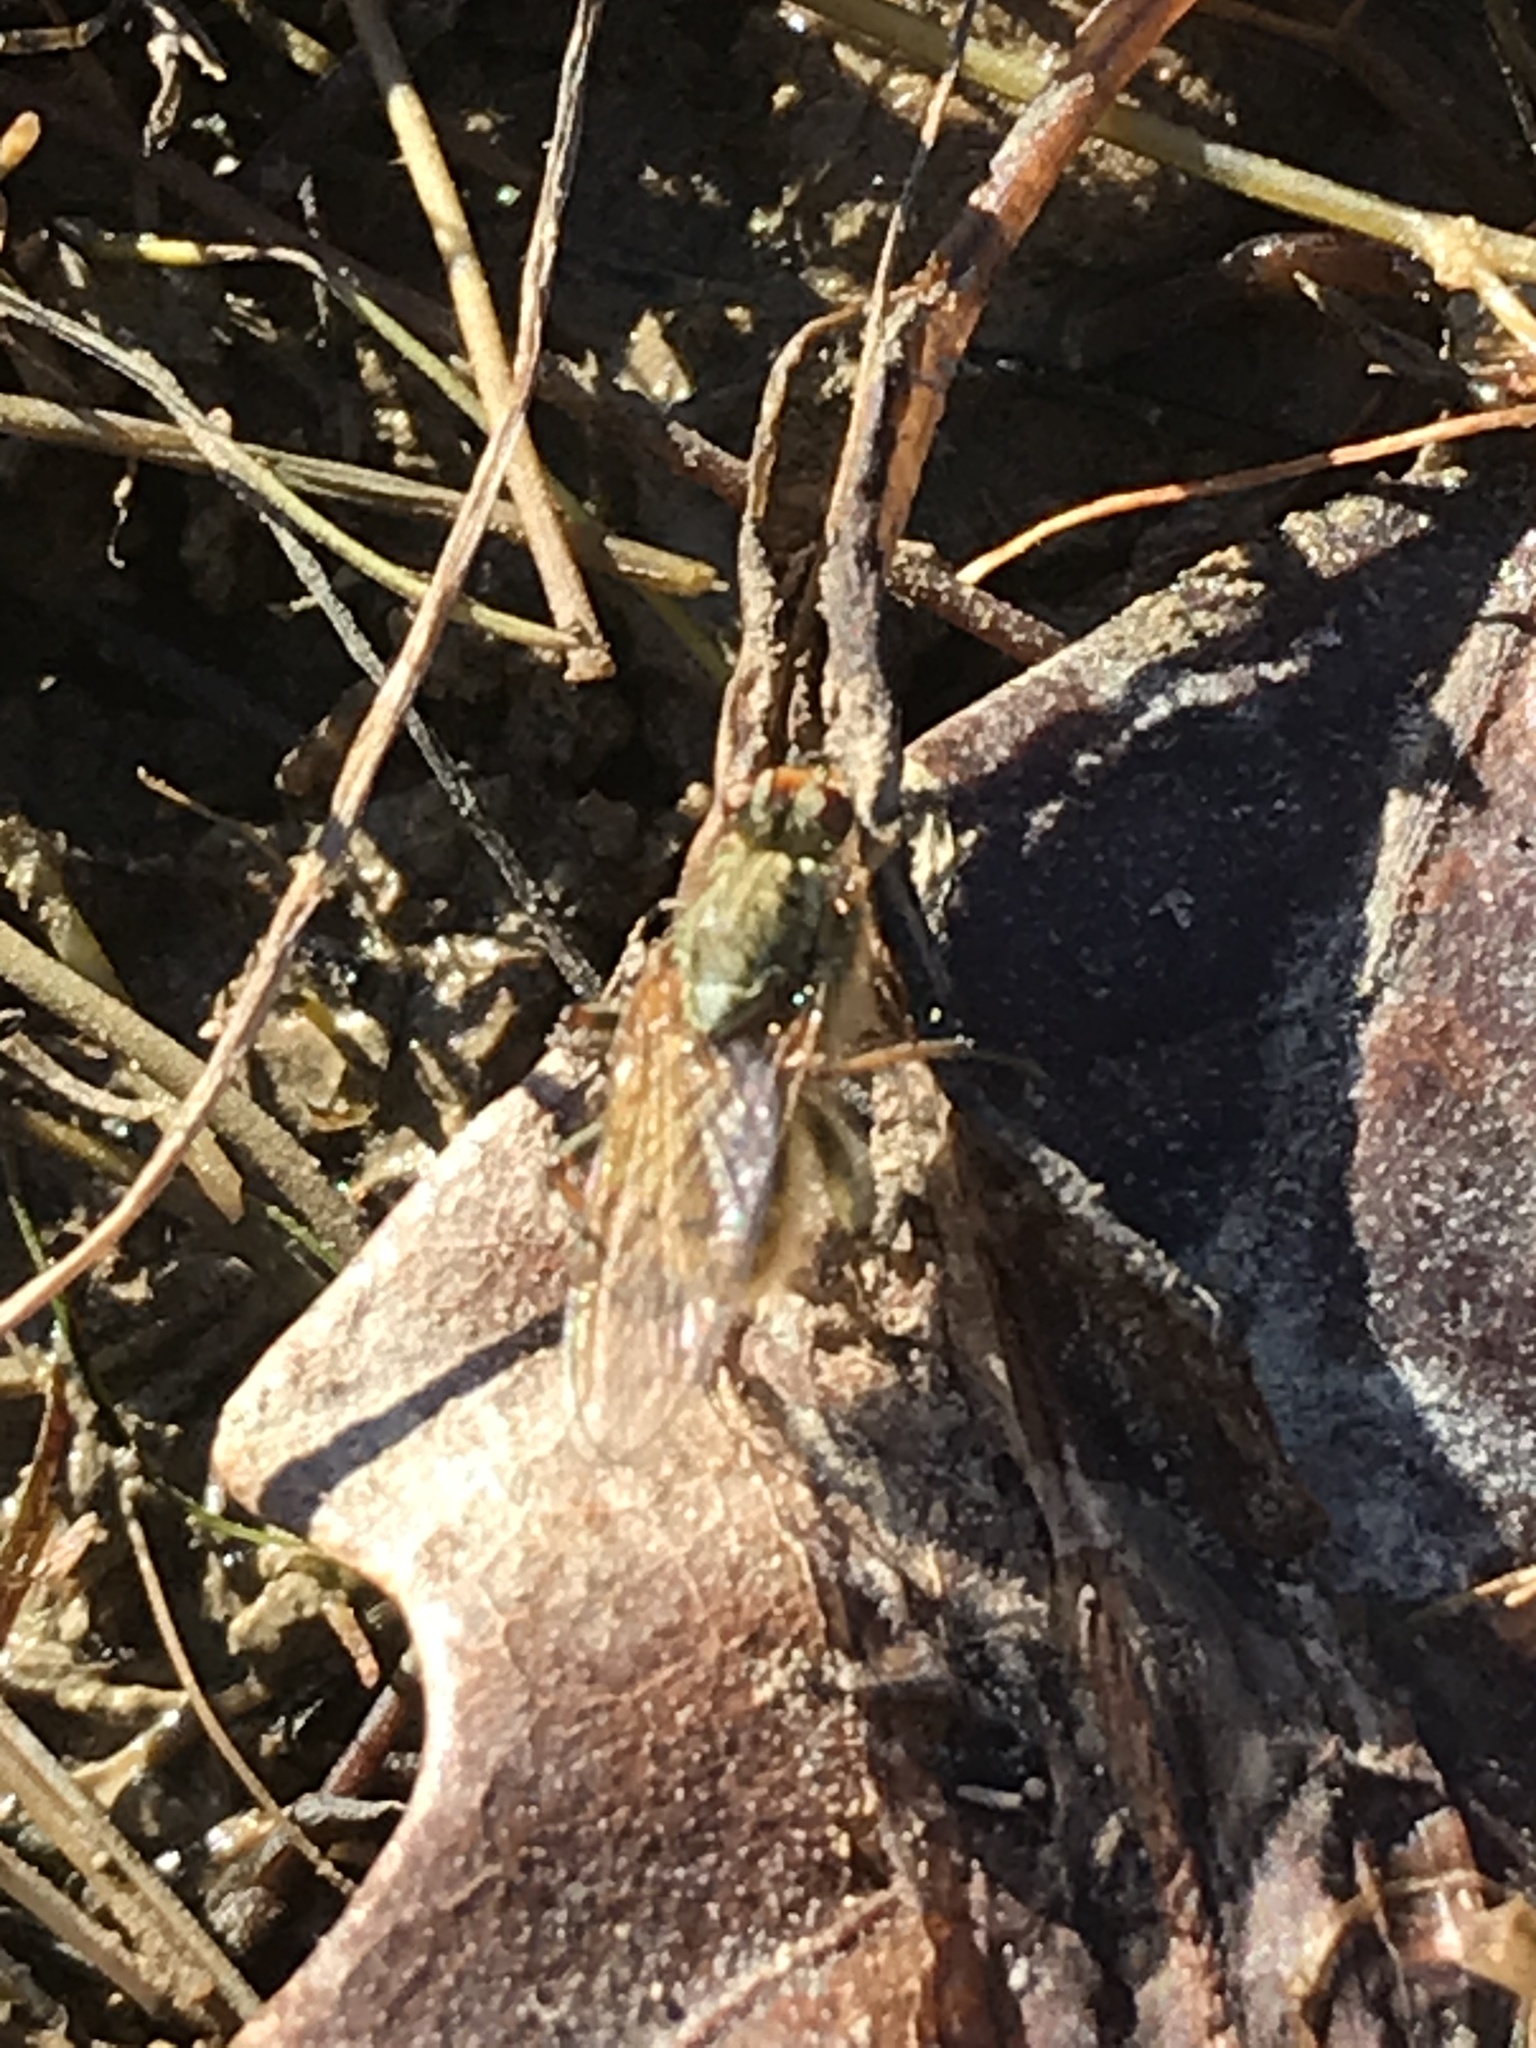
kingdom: Animalia
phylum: Arthropoda
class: Insecta
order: Diptera
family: Scathophagidae
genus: Scathophaga
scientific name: Scathophaga stercoraria
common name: Yellow dung fly
